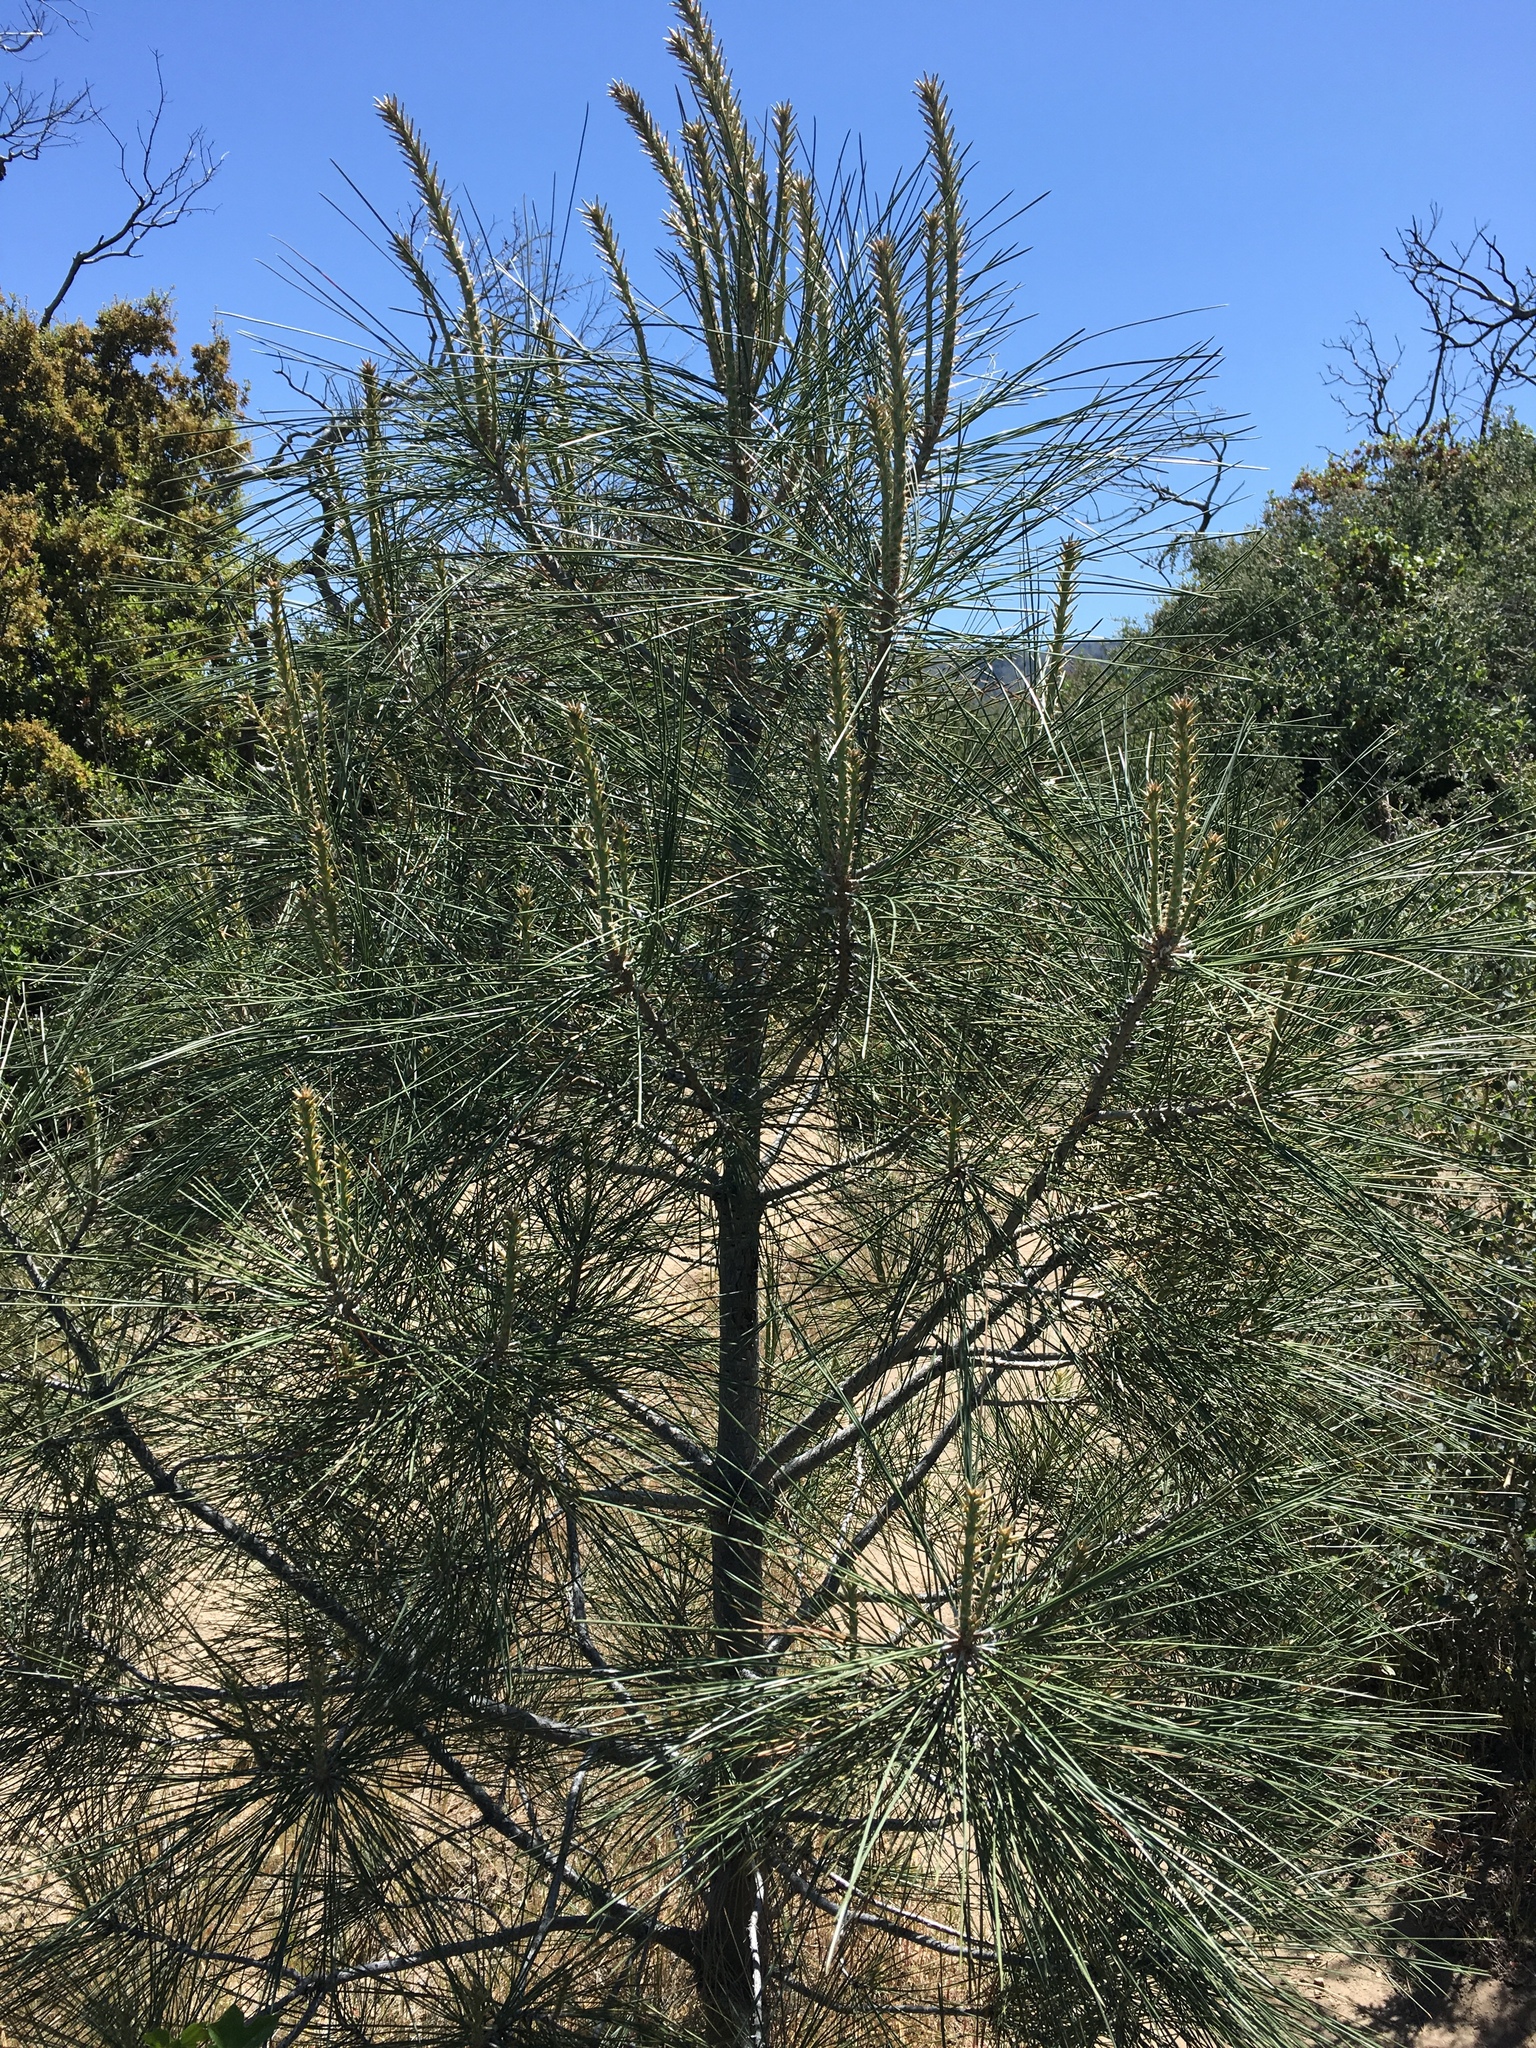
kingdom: Plantae
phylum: Tracheophyta
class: Pinopsida
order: Pinales
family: Pinaceae
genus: Pinus
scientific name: Pinus coulteri
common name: Coulter pine
